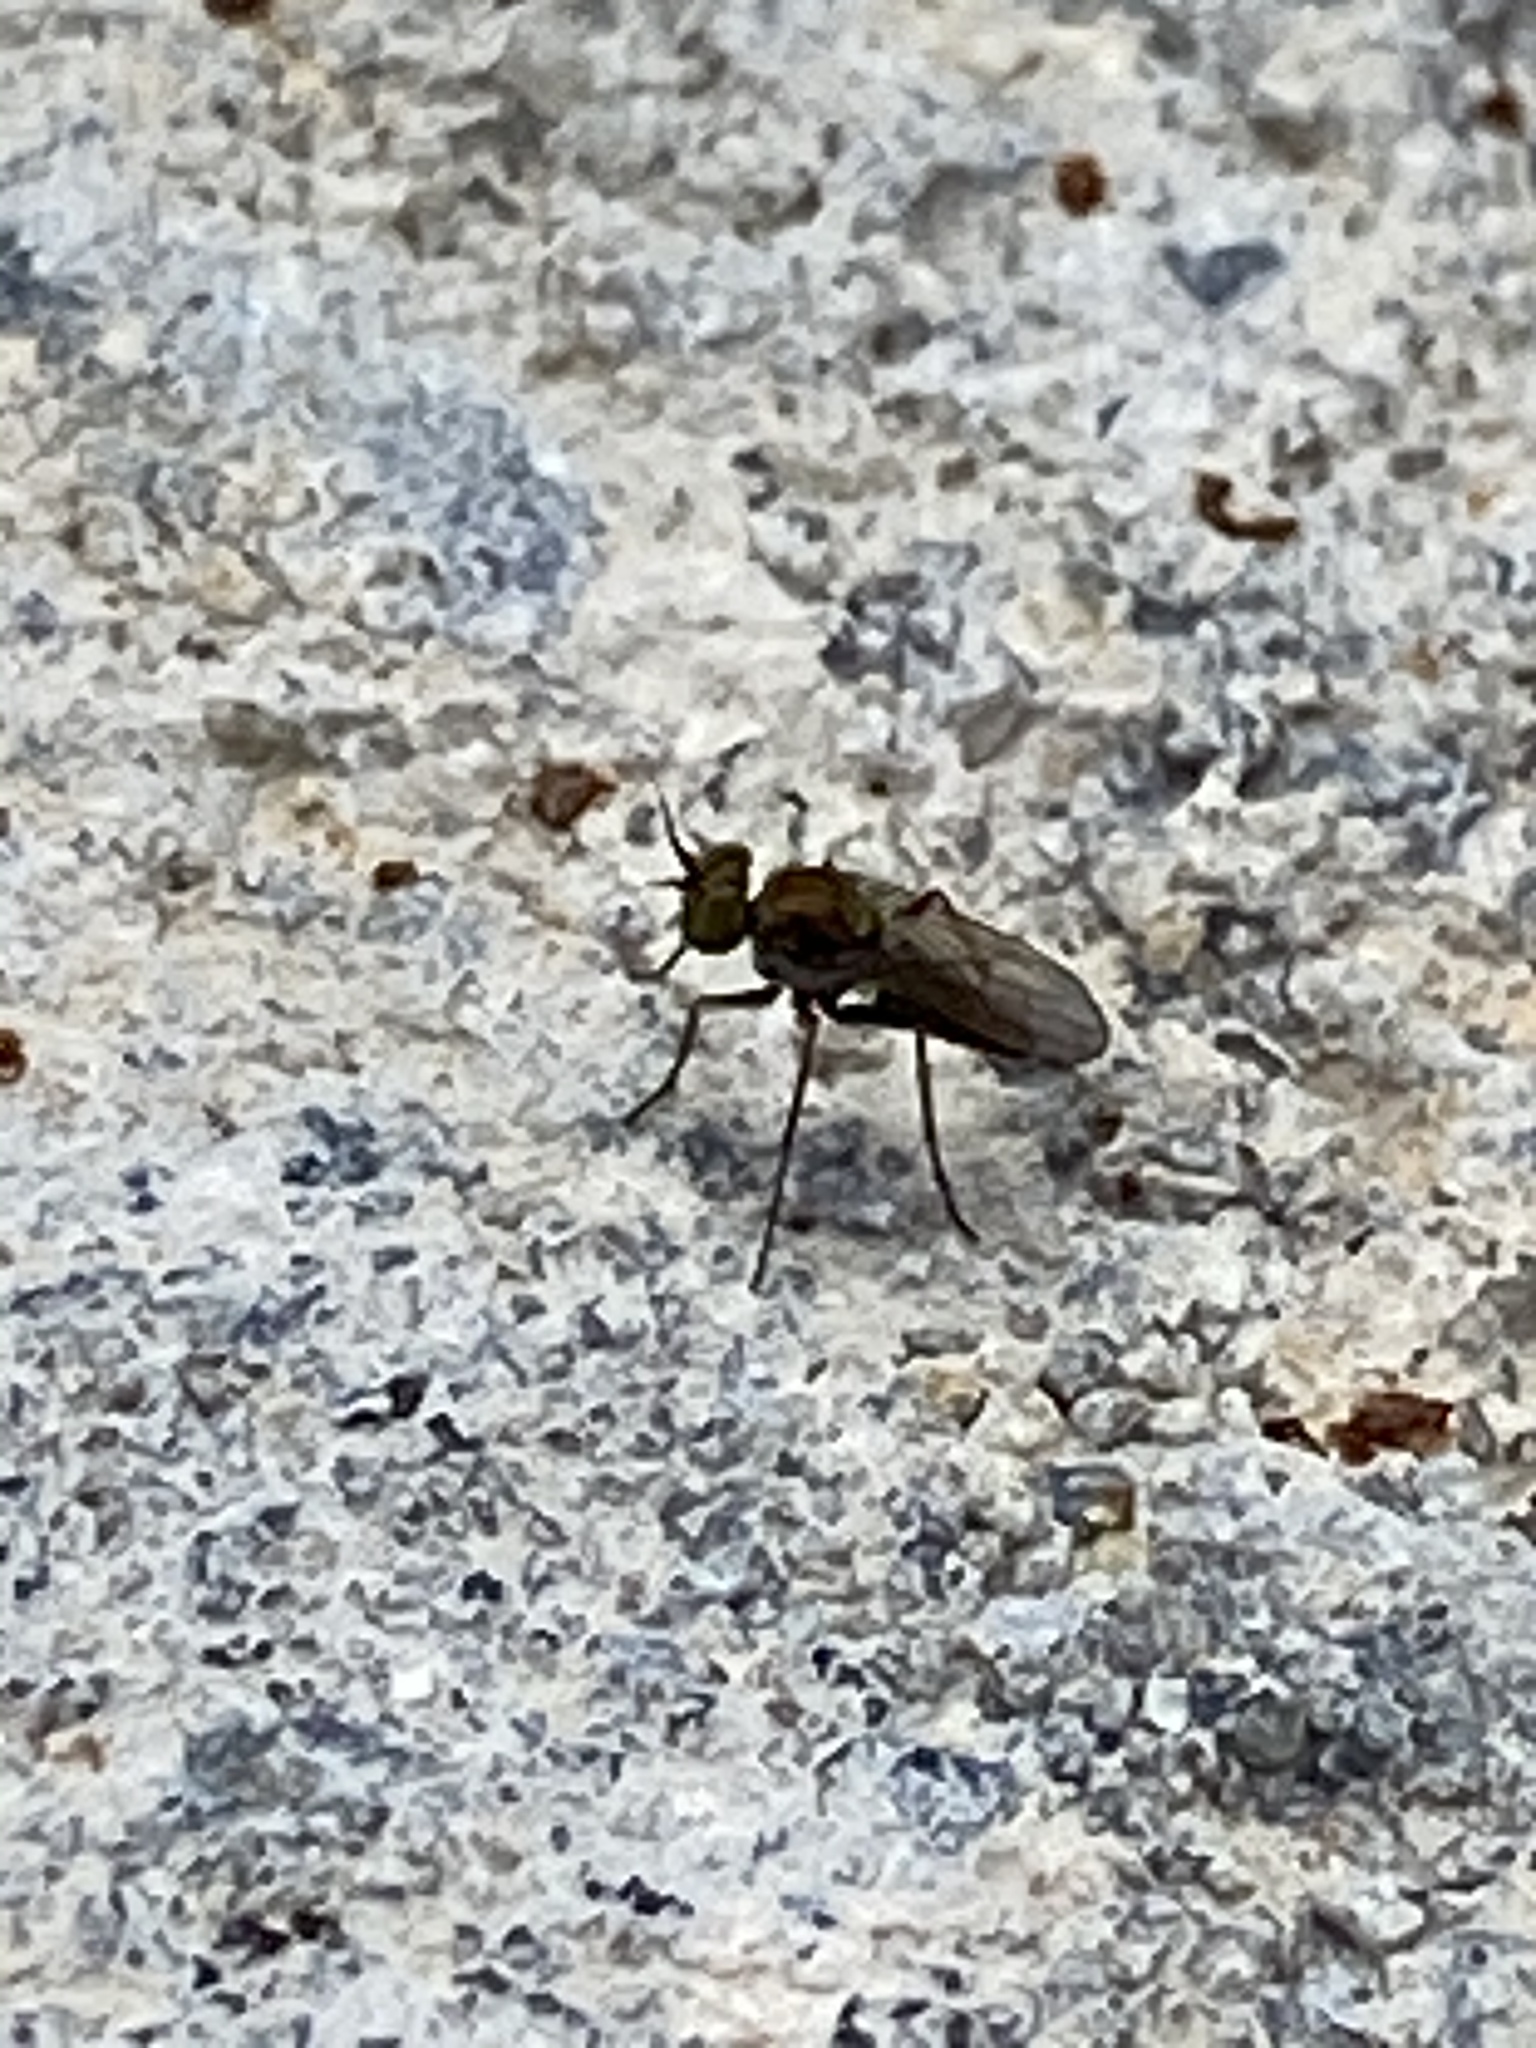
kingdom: Animalia
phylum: Arthropoda
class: Insecta
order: Diptera
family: Dolichopodidae
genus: Achradocera
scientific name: Achradocera barbata
